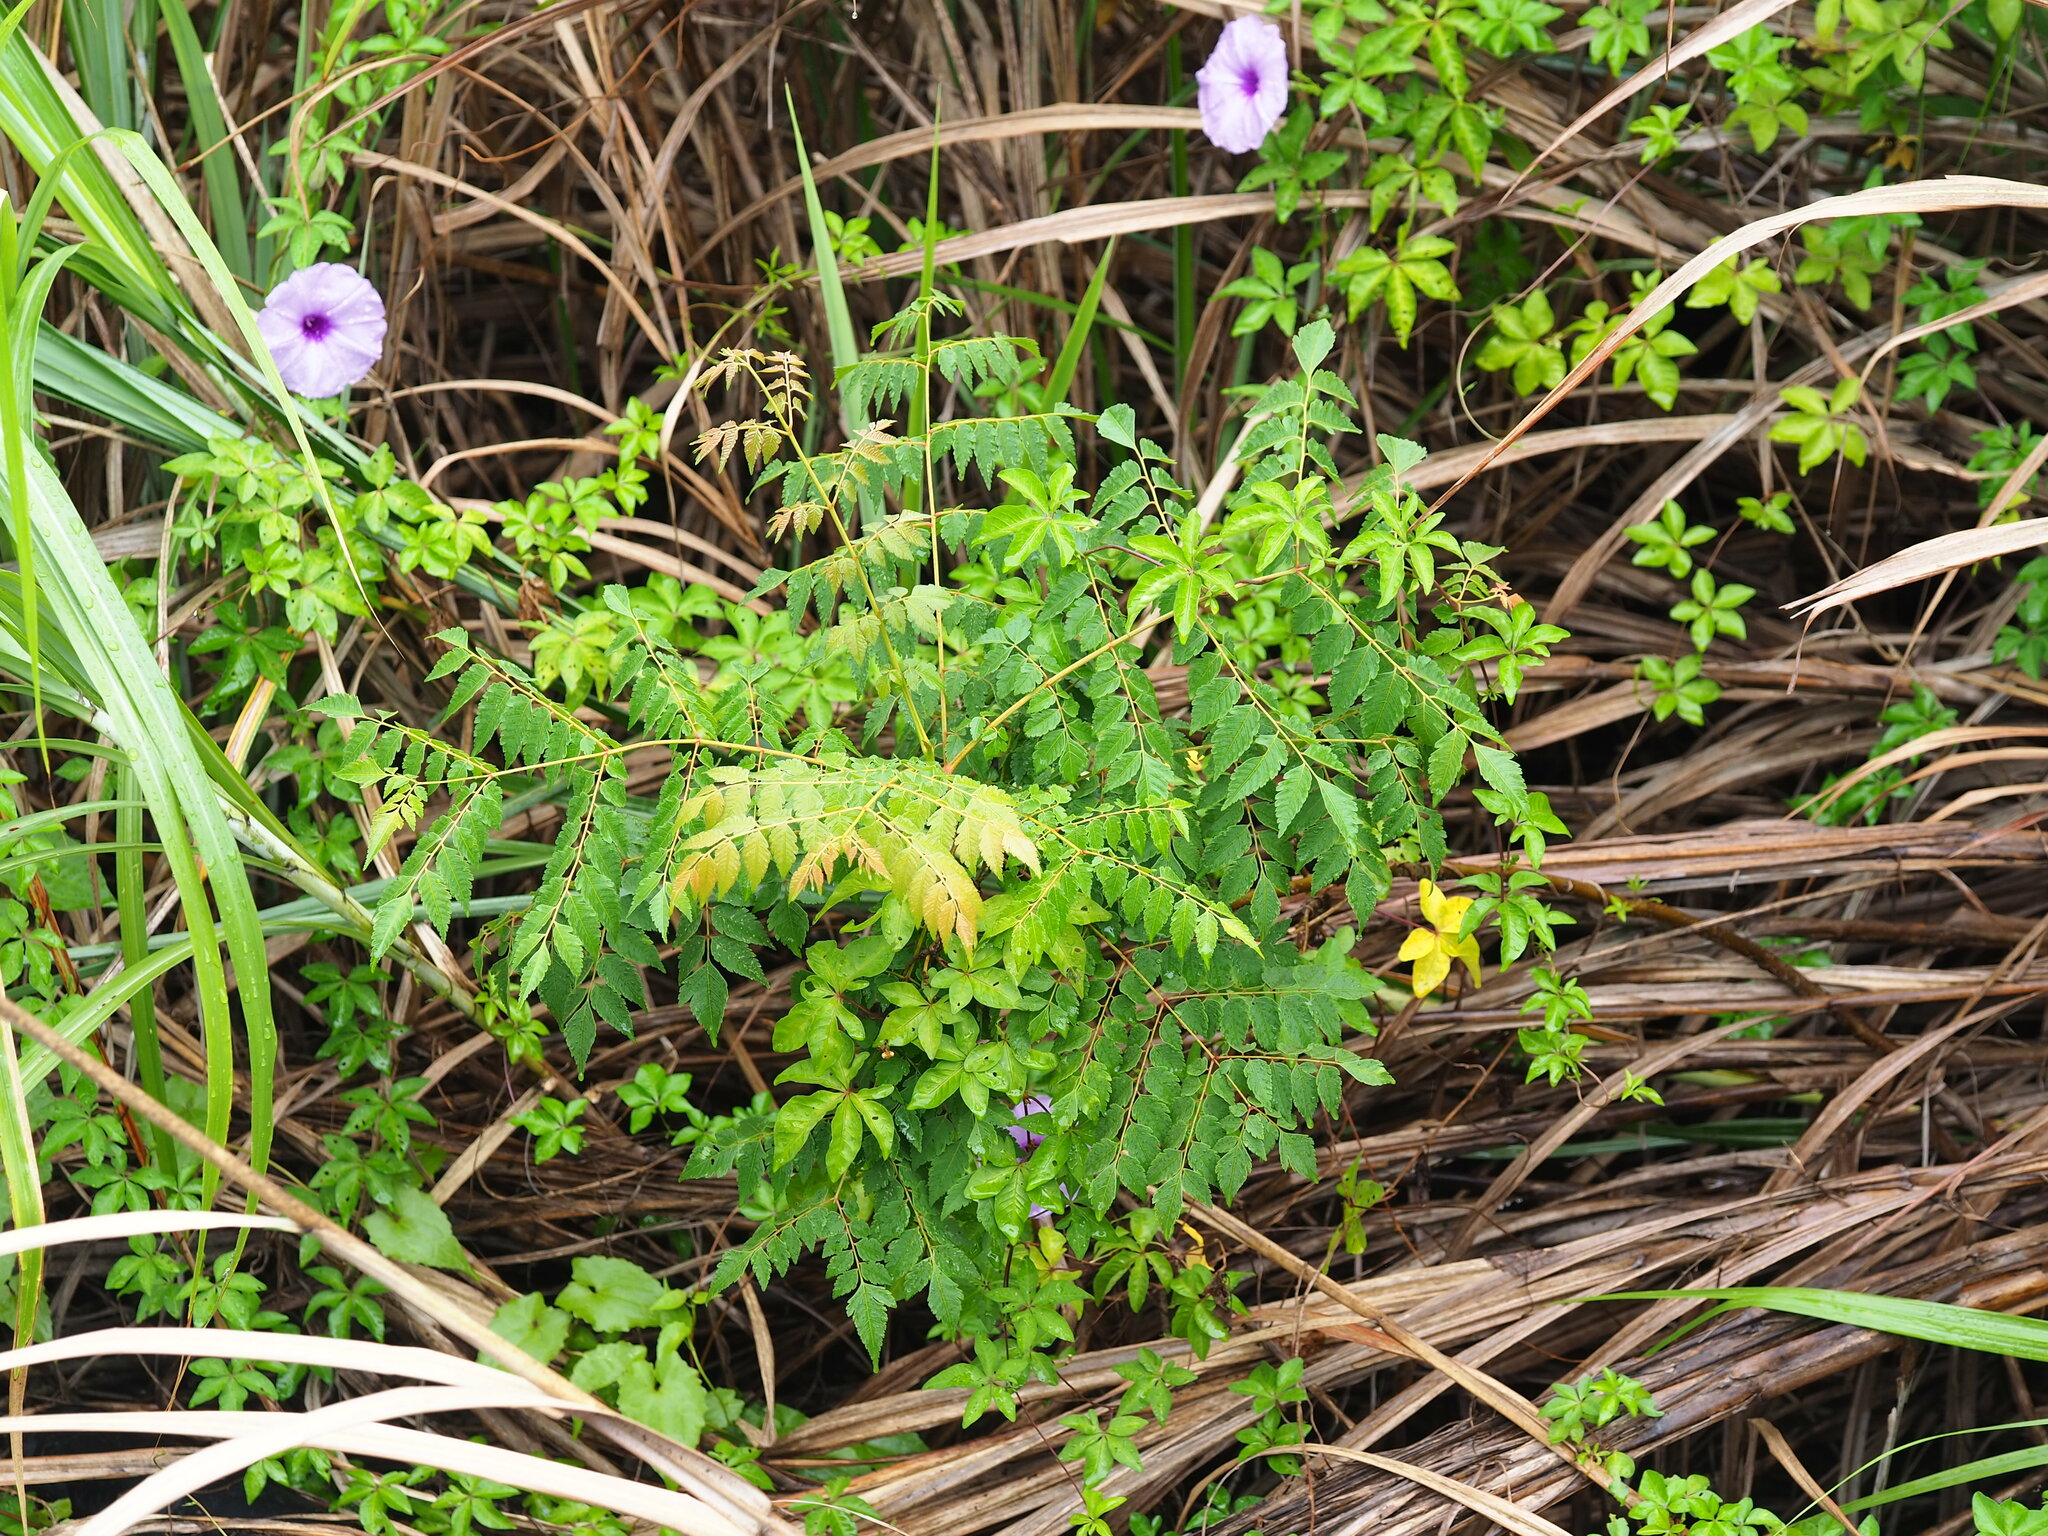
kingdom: Plantae
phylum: Tracheophyta
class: Magnoliopsida
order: Sapindales
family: Sapindaceae
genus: Koelreuteria
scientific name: Koelreuteria elegans
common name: Chinese flame tree
